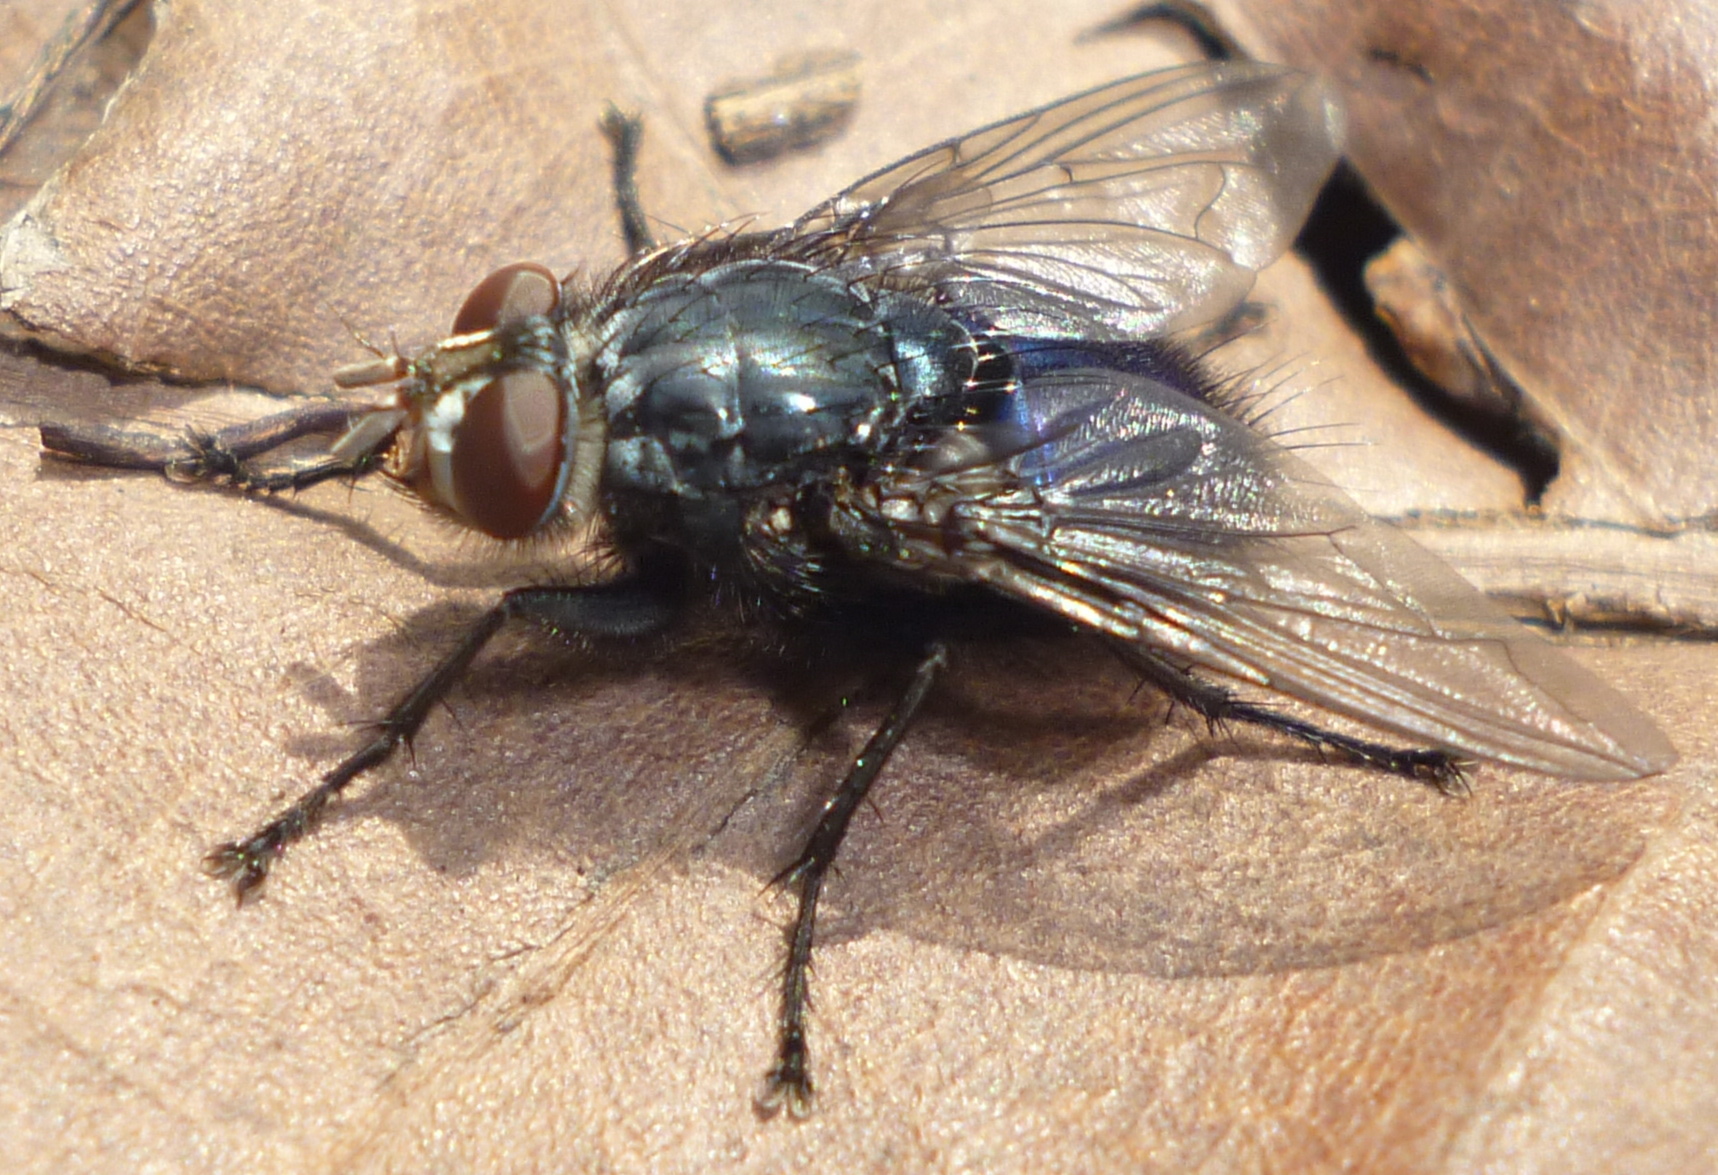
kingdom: Animalia
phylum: Arthropoda
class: Insecta
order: Diptera
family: Calliphoridae
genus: Cynomya
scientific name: Cynomya cadaverina
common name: Shiny blue bottle fly
